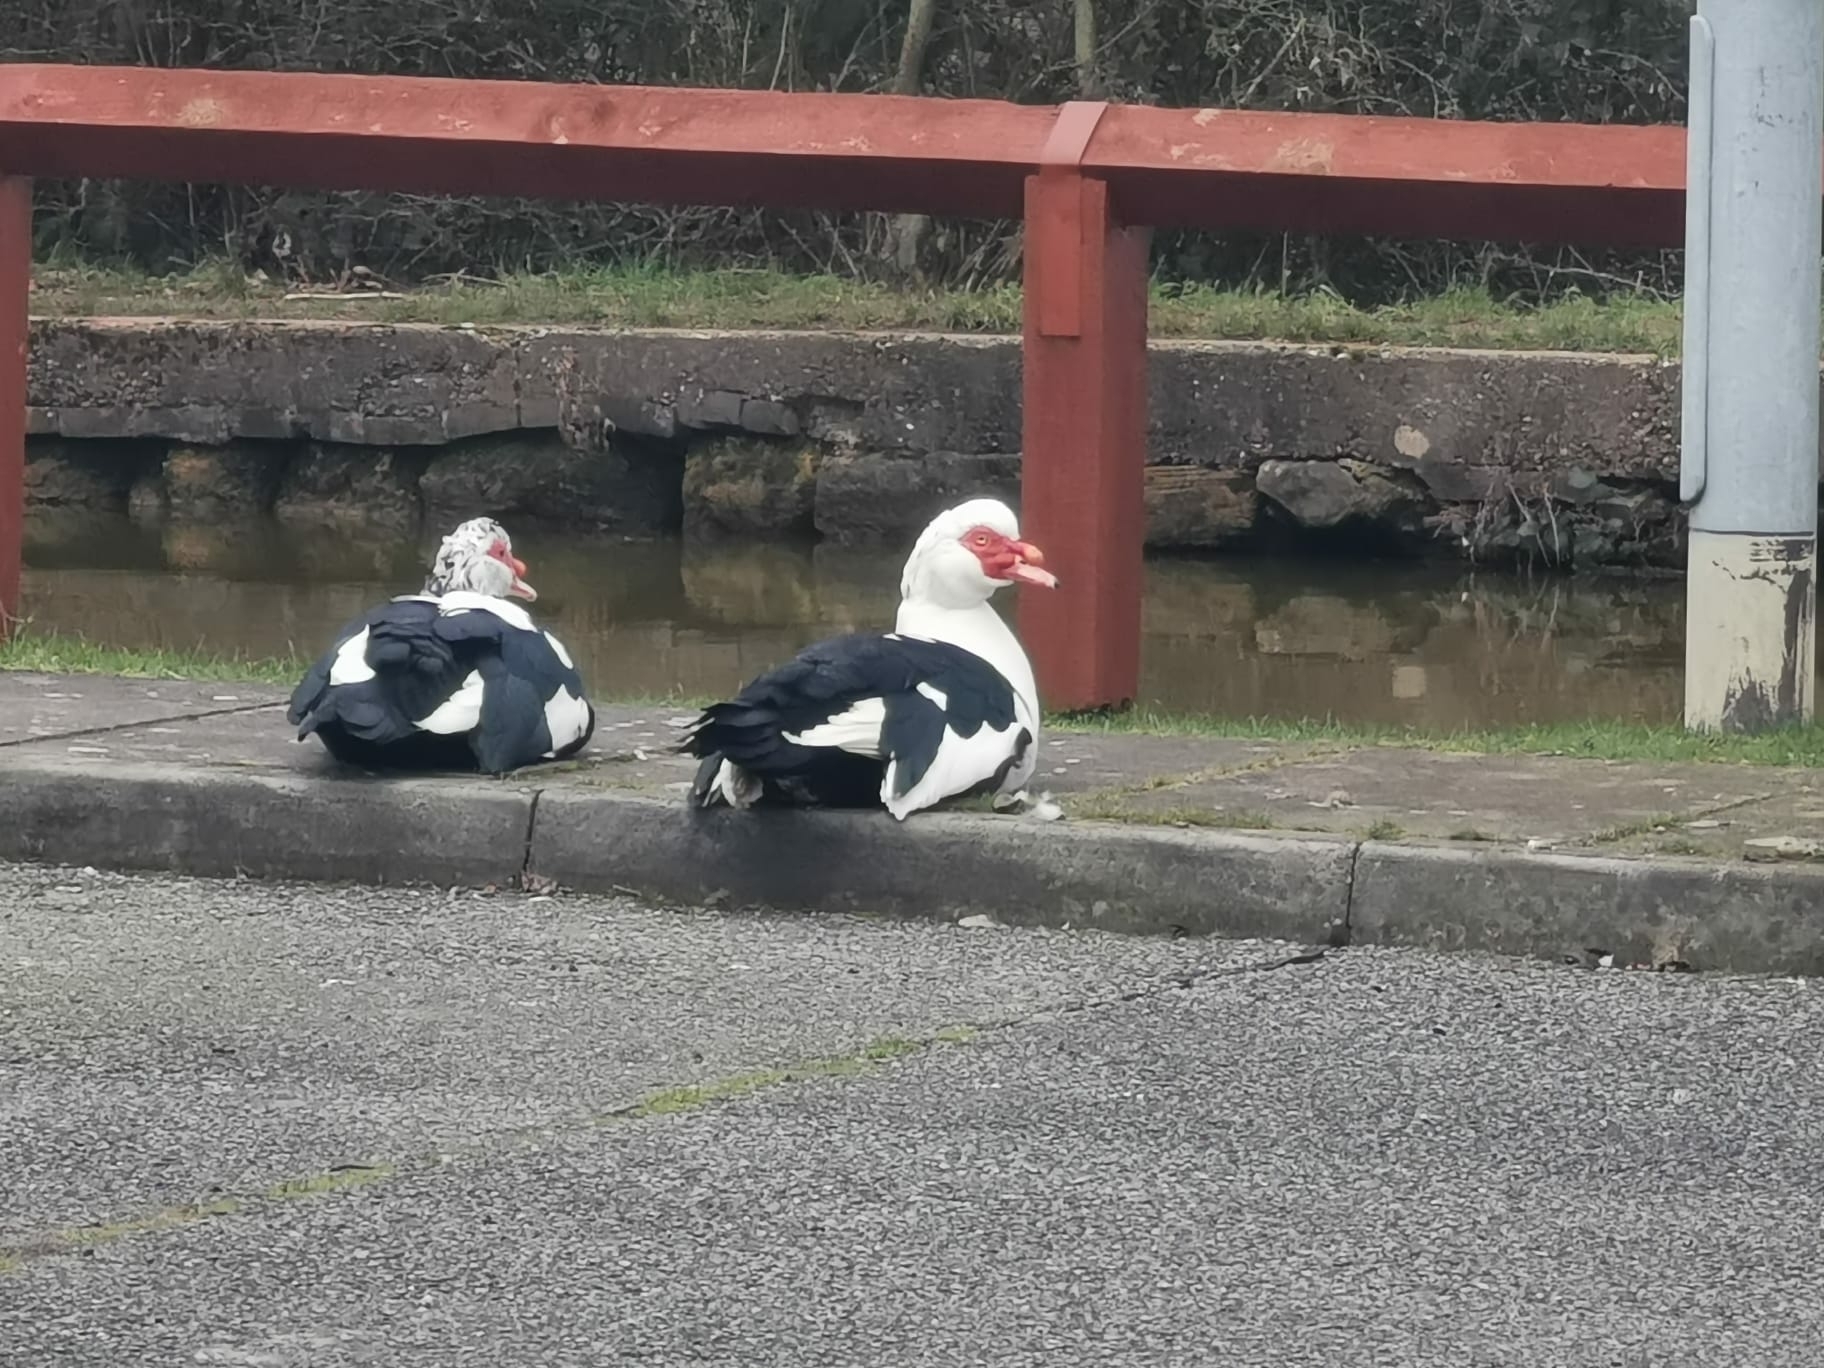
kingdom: Animalia
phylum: Chordata
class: Aves
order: Anseriformes
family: Anatidae
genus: Cairina
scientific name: Cairina moschata
